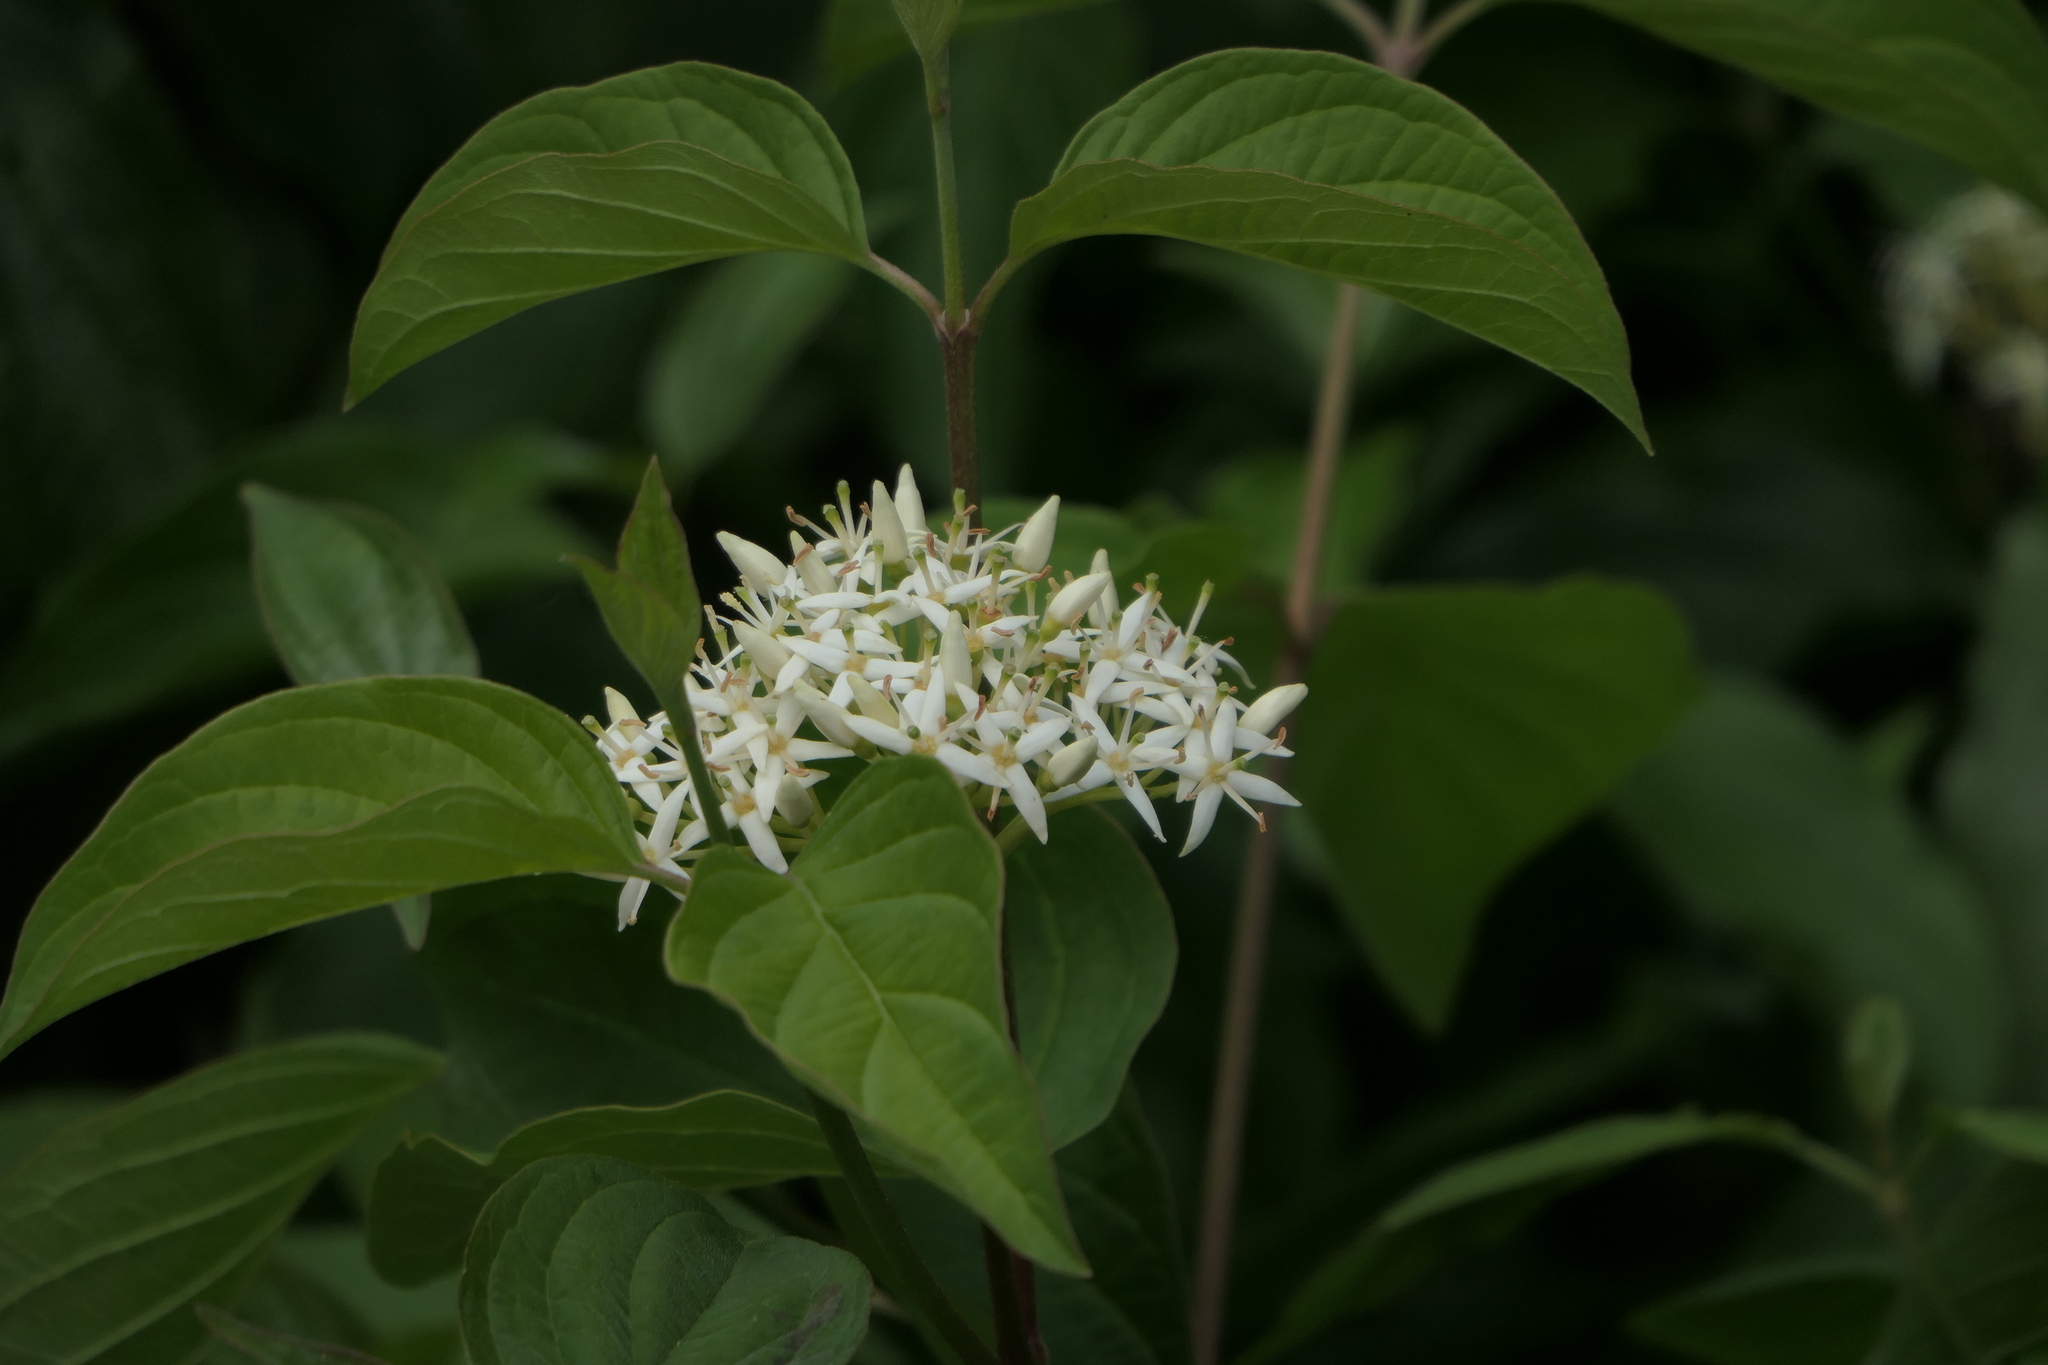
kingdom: Plantae
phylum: Tracheophyta
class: Magnoliopsida
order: Cornales
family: Cornaceae
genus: Cornus
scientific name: Cornus sanguinea
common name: Dogwood
